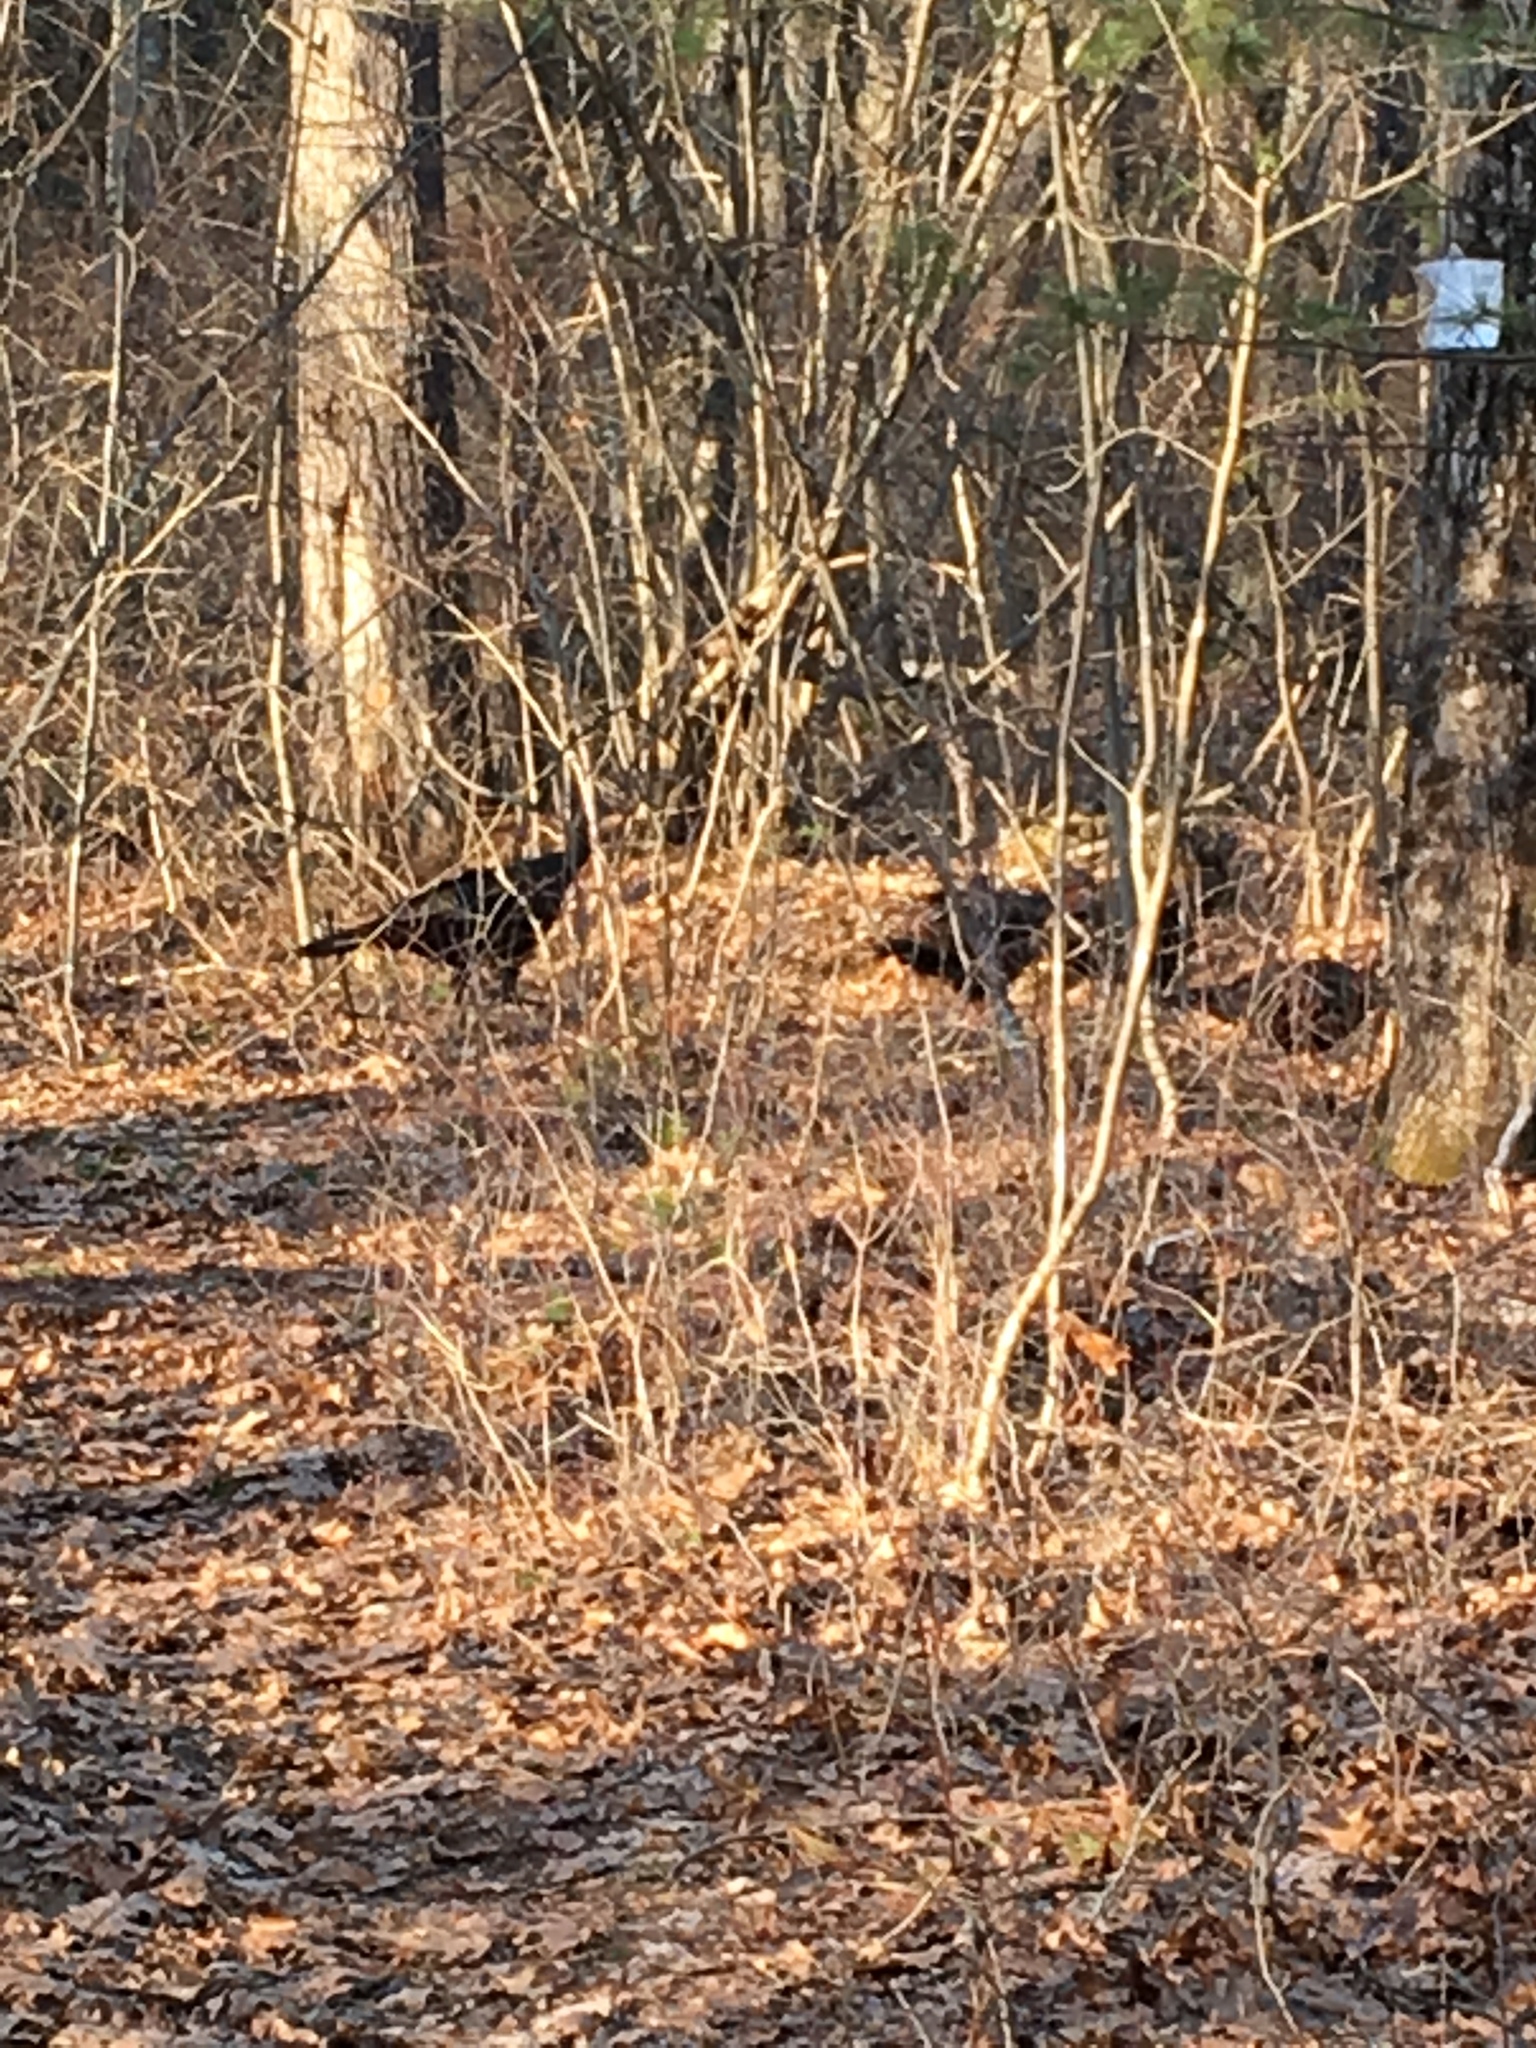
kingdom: Animalia
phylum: Chordata
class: Aves
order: Galliformes
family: Phasianidae
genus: Meleagris
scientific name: Meleagris gallopavo
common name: Wild turkey
